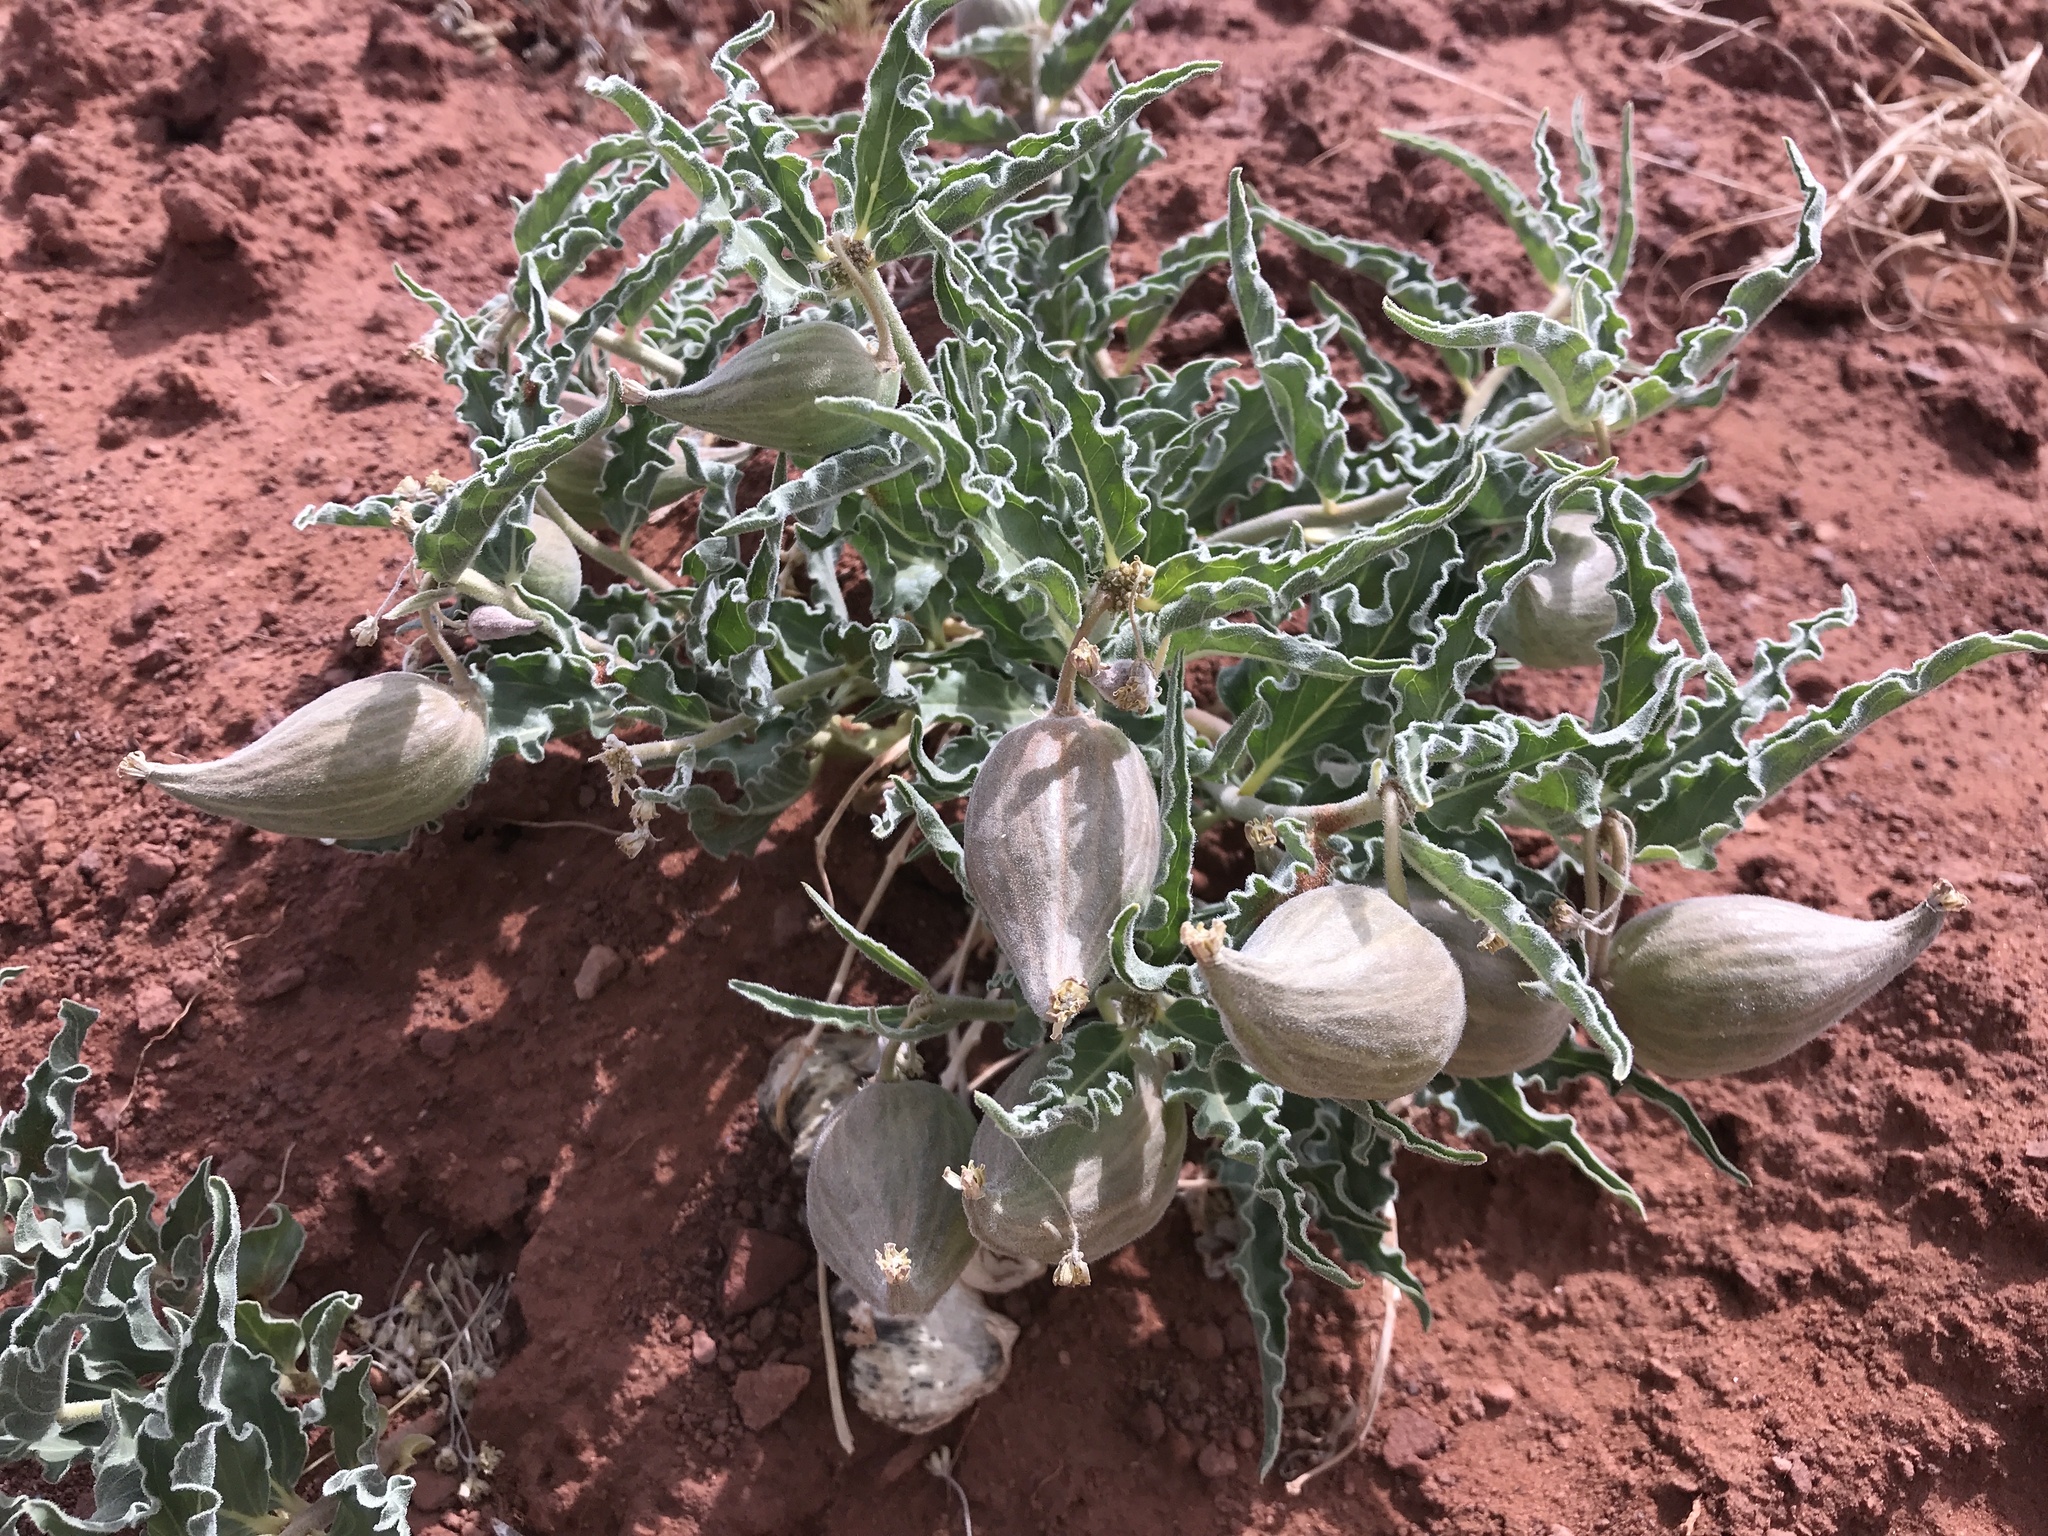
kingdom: Plantae
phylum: Tracheophyta
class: Magnoliopsida
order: Gentianales
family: Apocynaceae
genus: Asclepias
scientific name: Asclepias involucrata
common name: Dwarf milkweed
